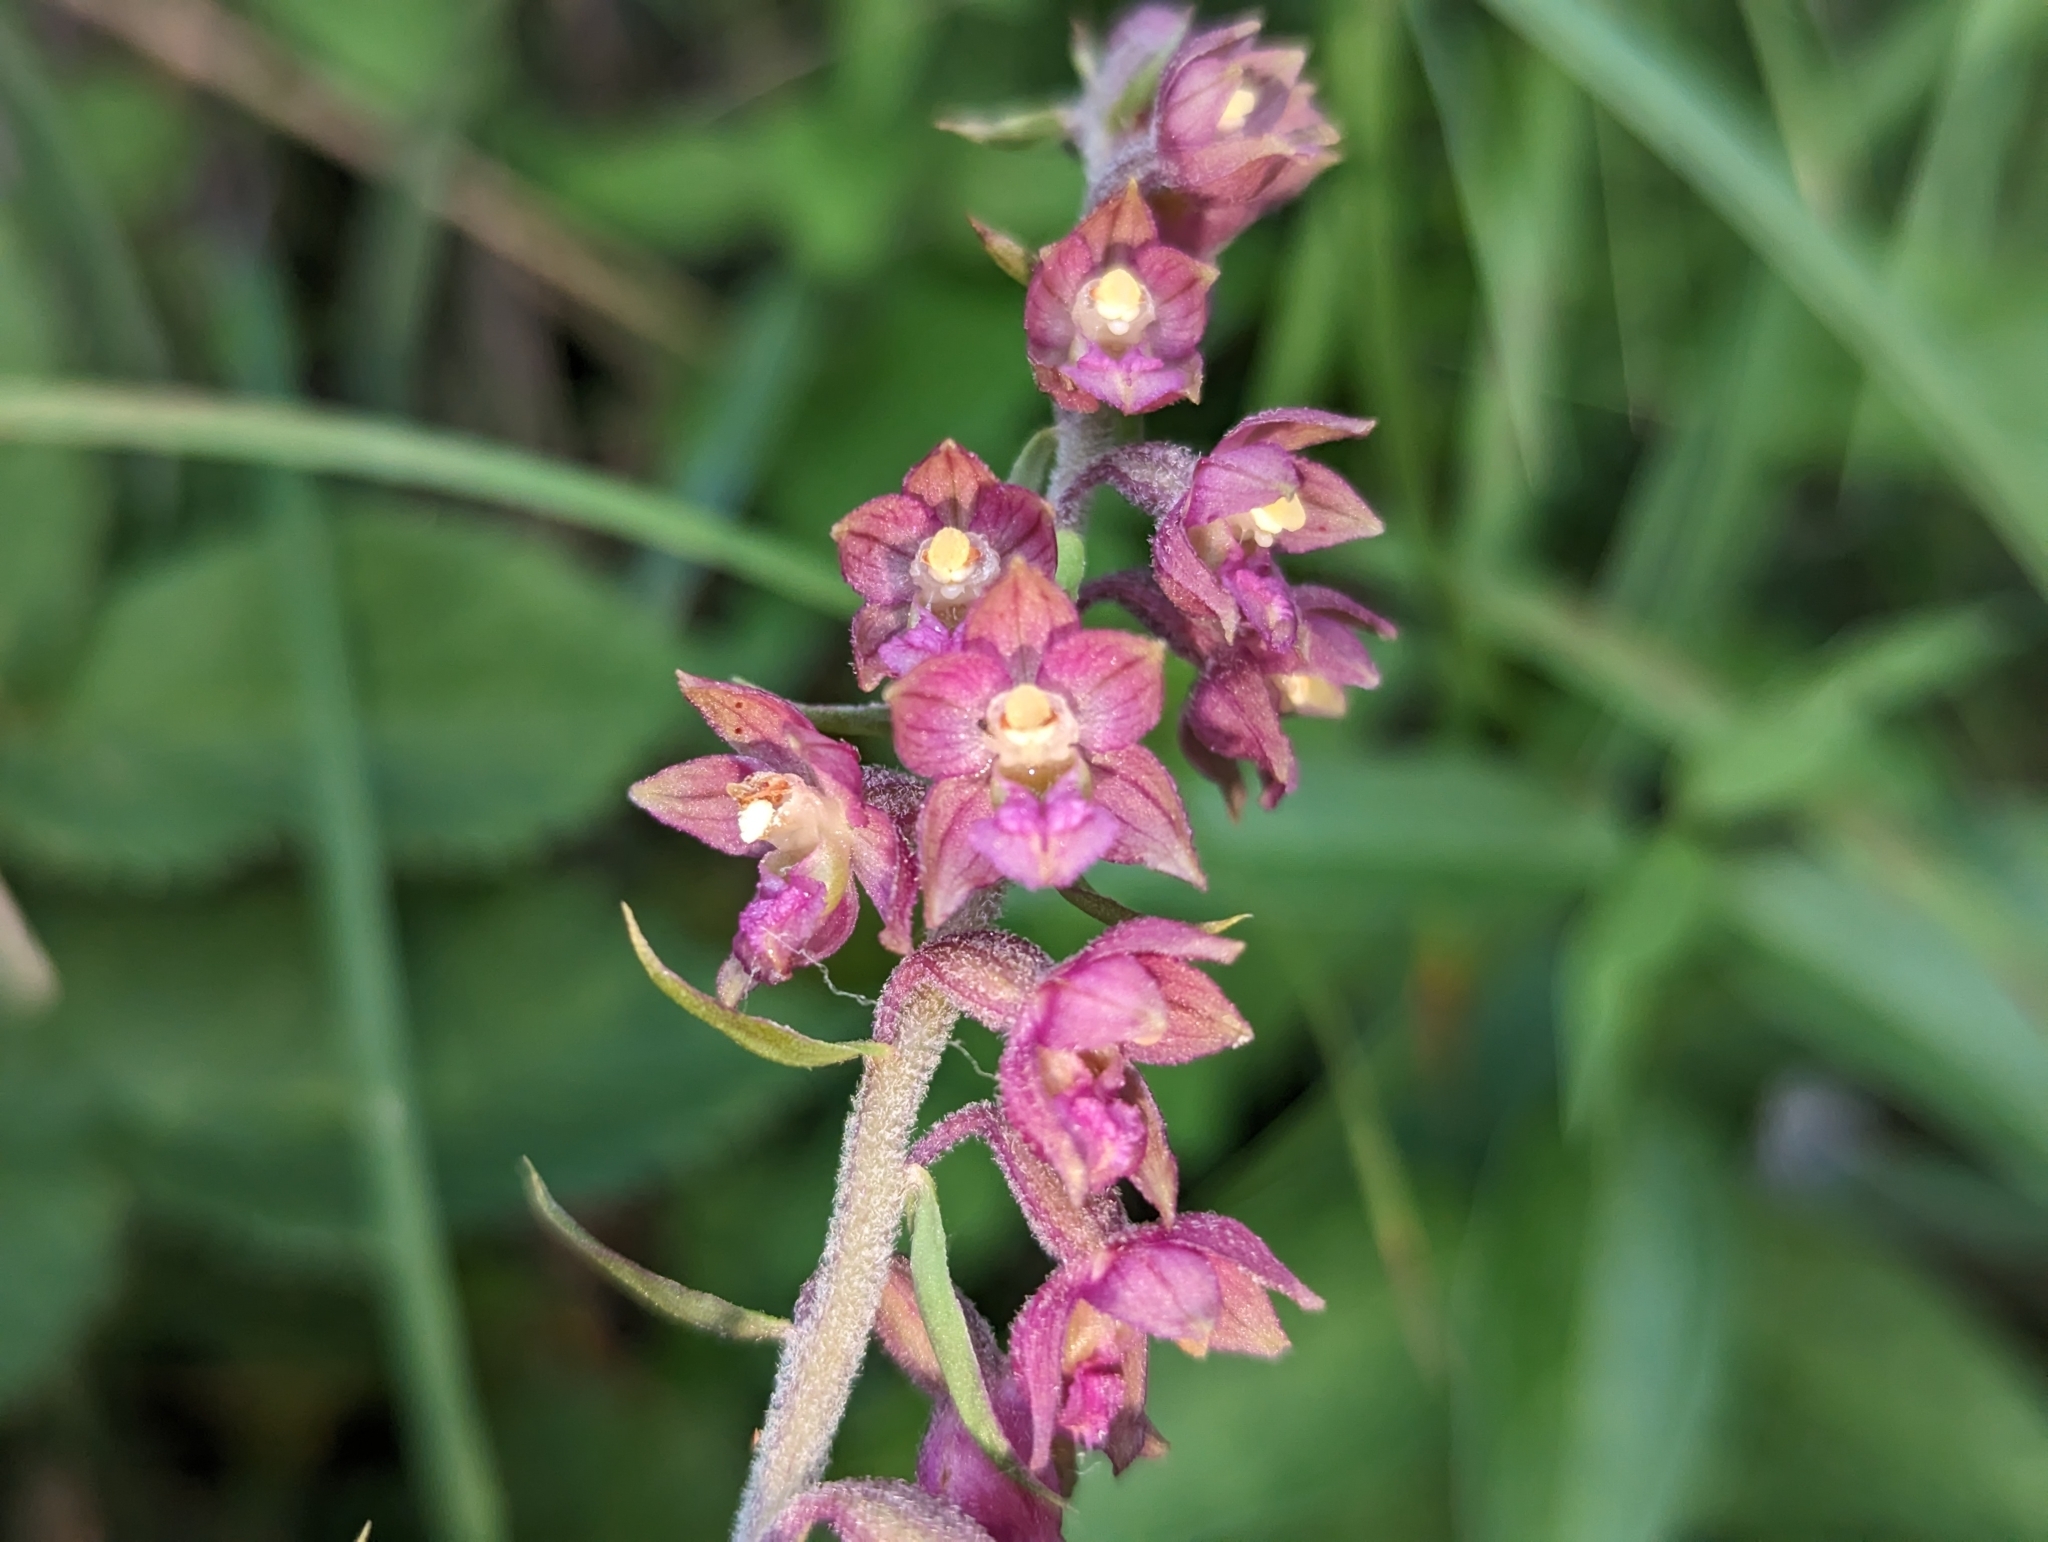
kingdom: Plantae
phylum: Tracheophyta
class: Liliopsida
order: Asparagales
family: Orchidaceae
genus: Epipactis
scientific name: Epipactis atrorubens
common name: Dark-red helleborine
